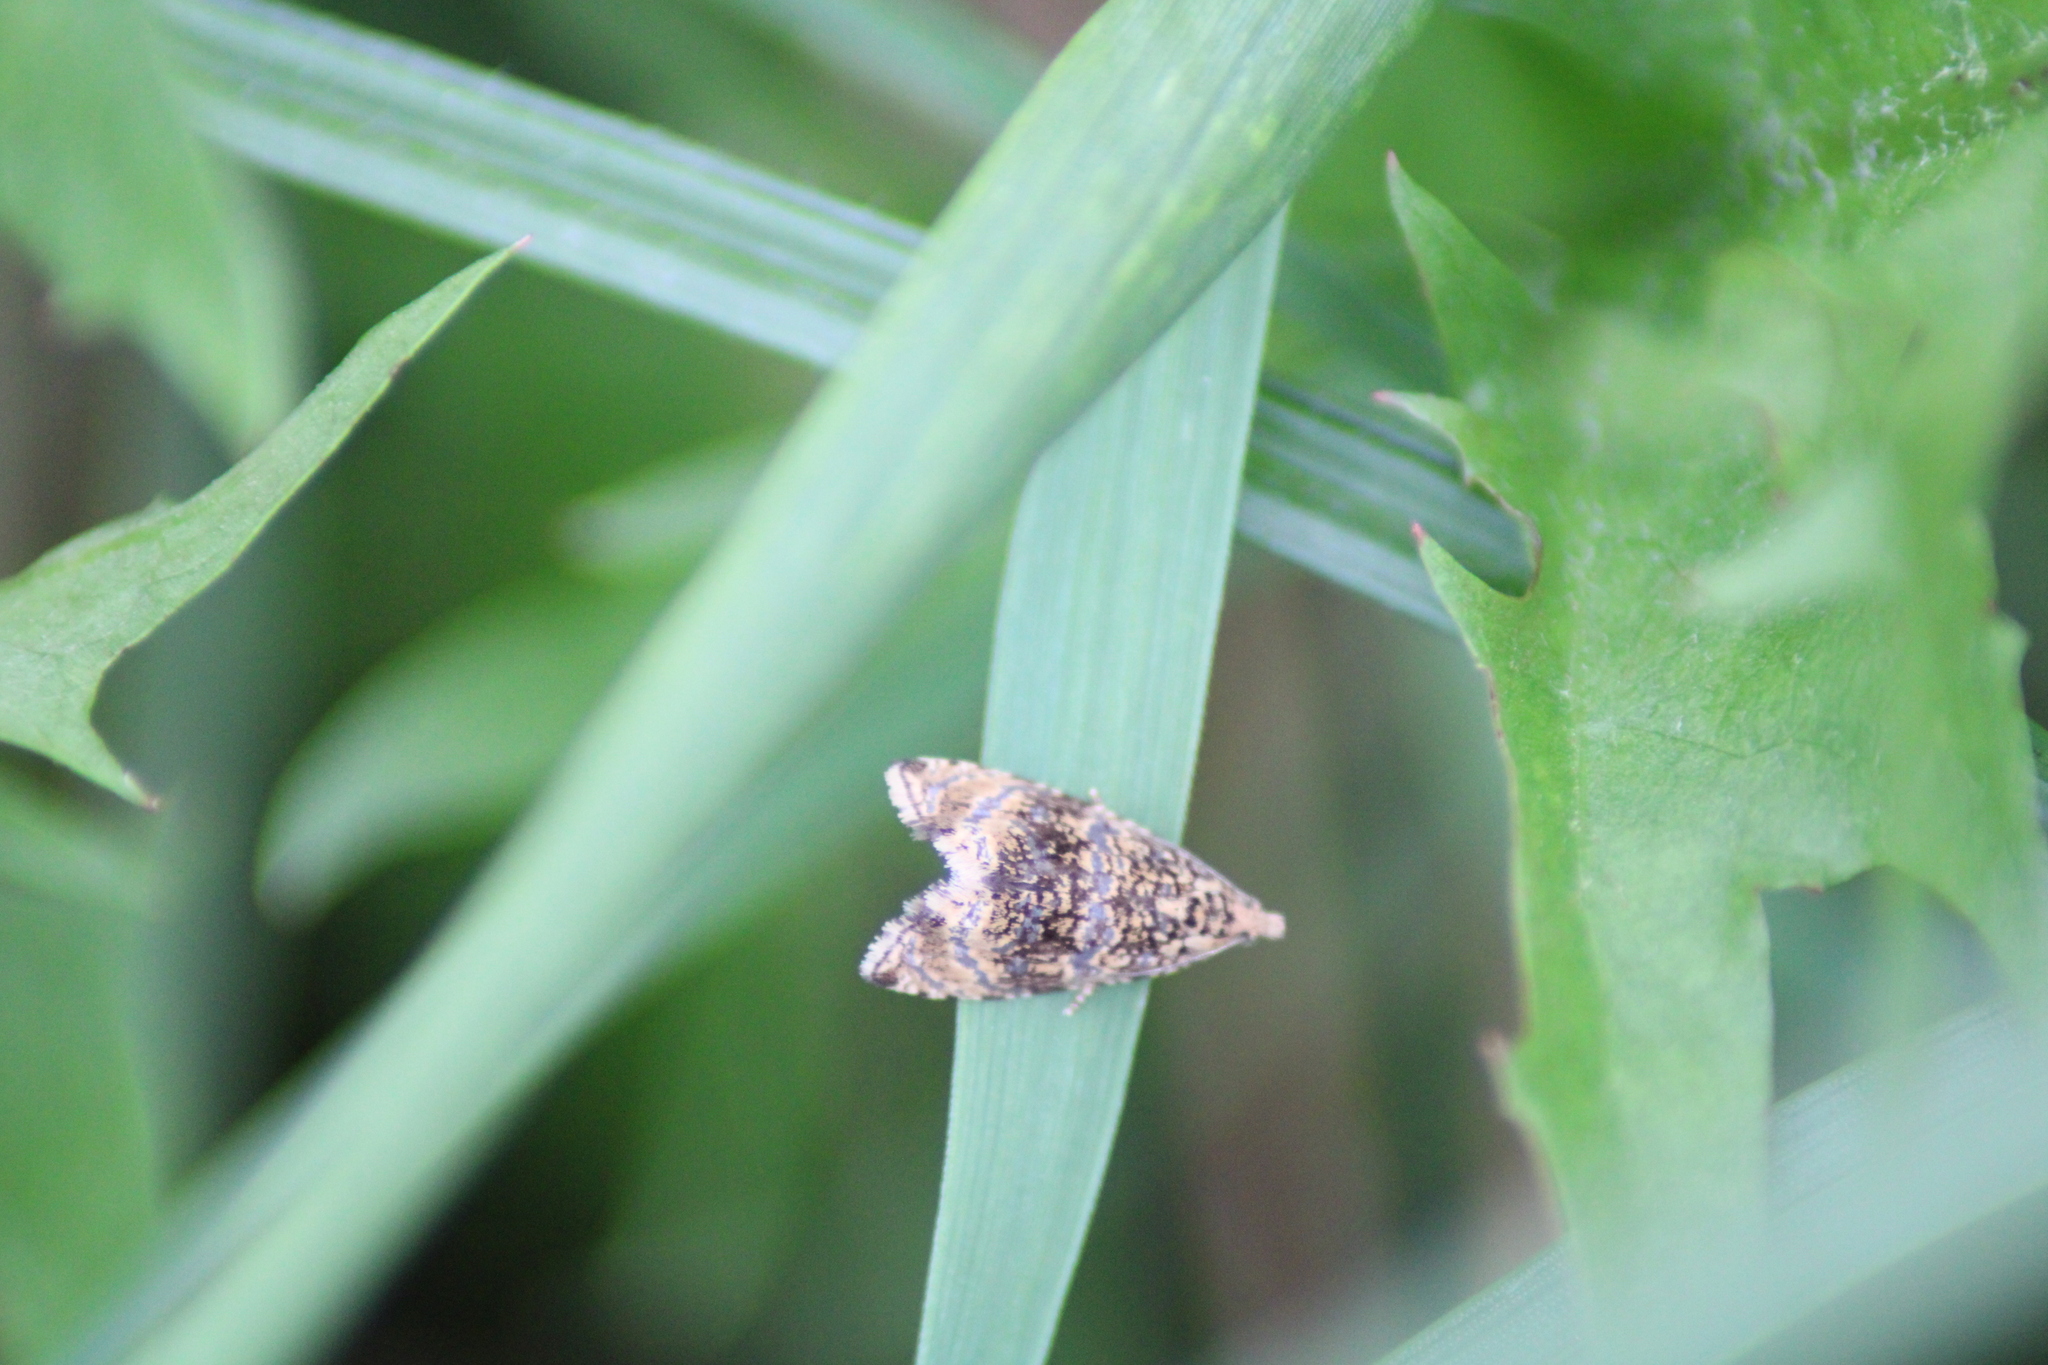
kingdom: Animalia
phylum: Arthropoda
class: Insecta
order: Lepidoptera
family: Tortricidae
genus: Syricoris
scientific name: Syricoris lacunana
